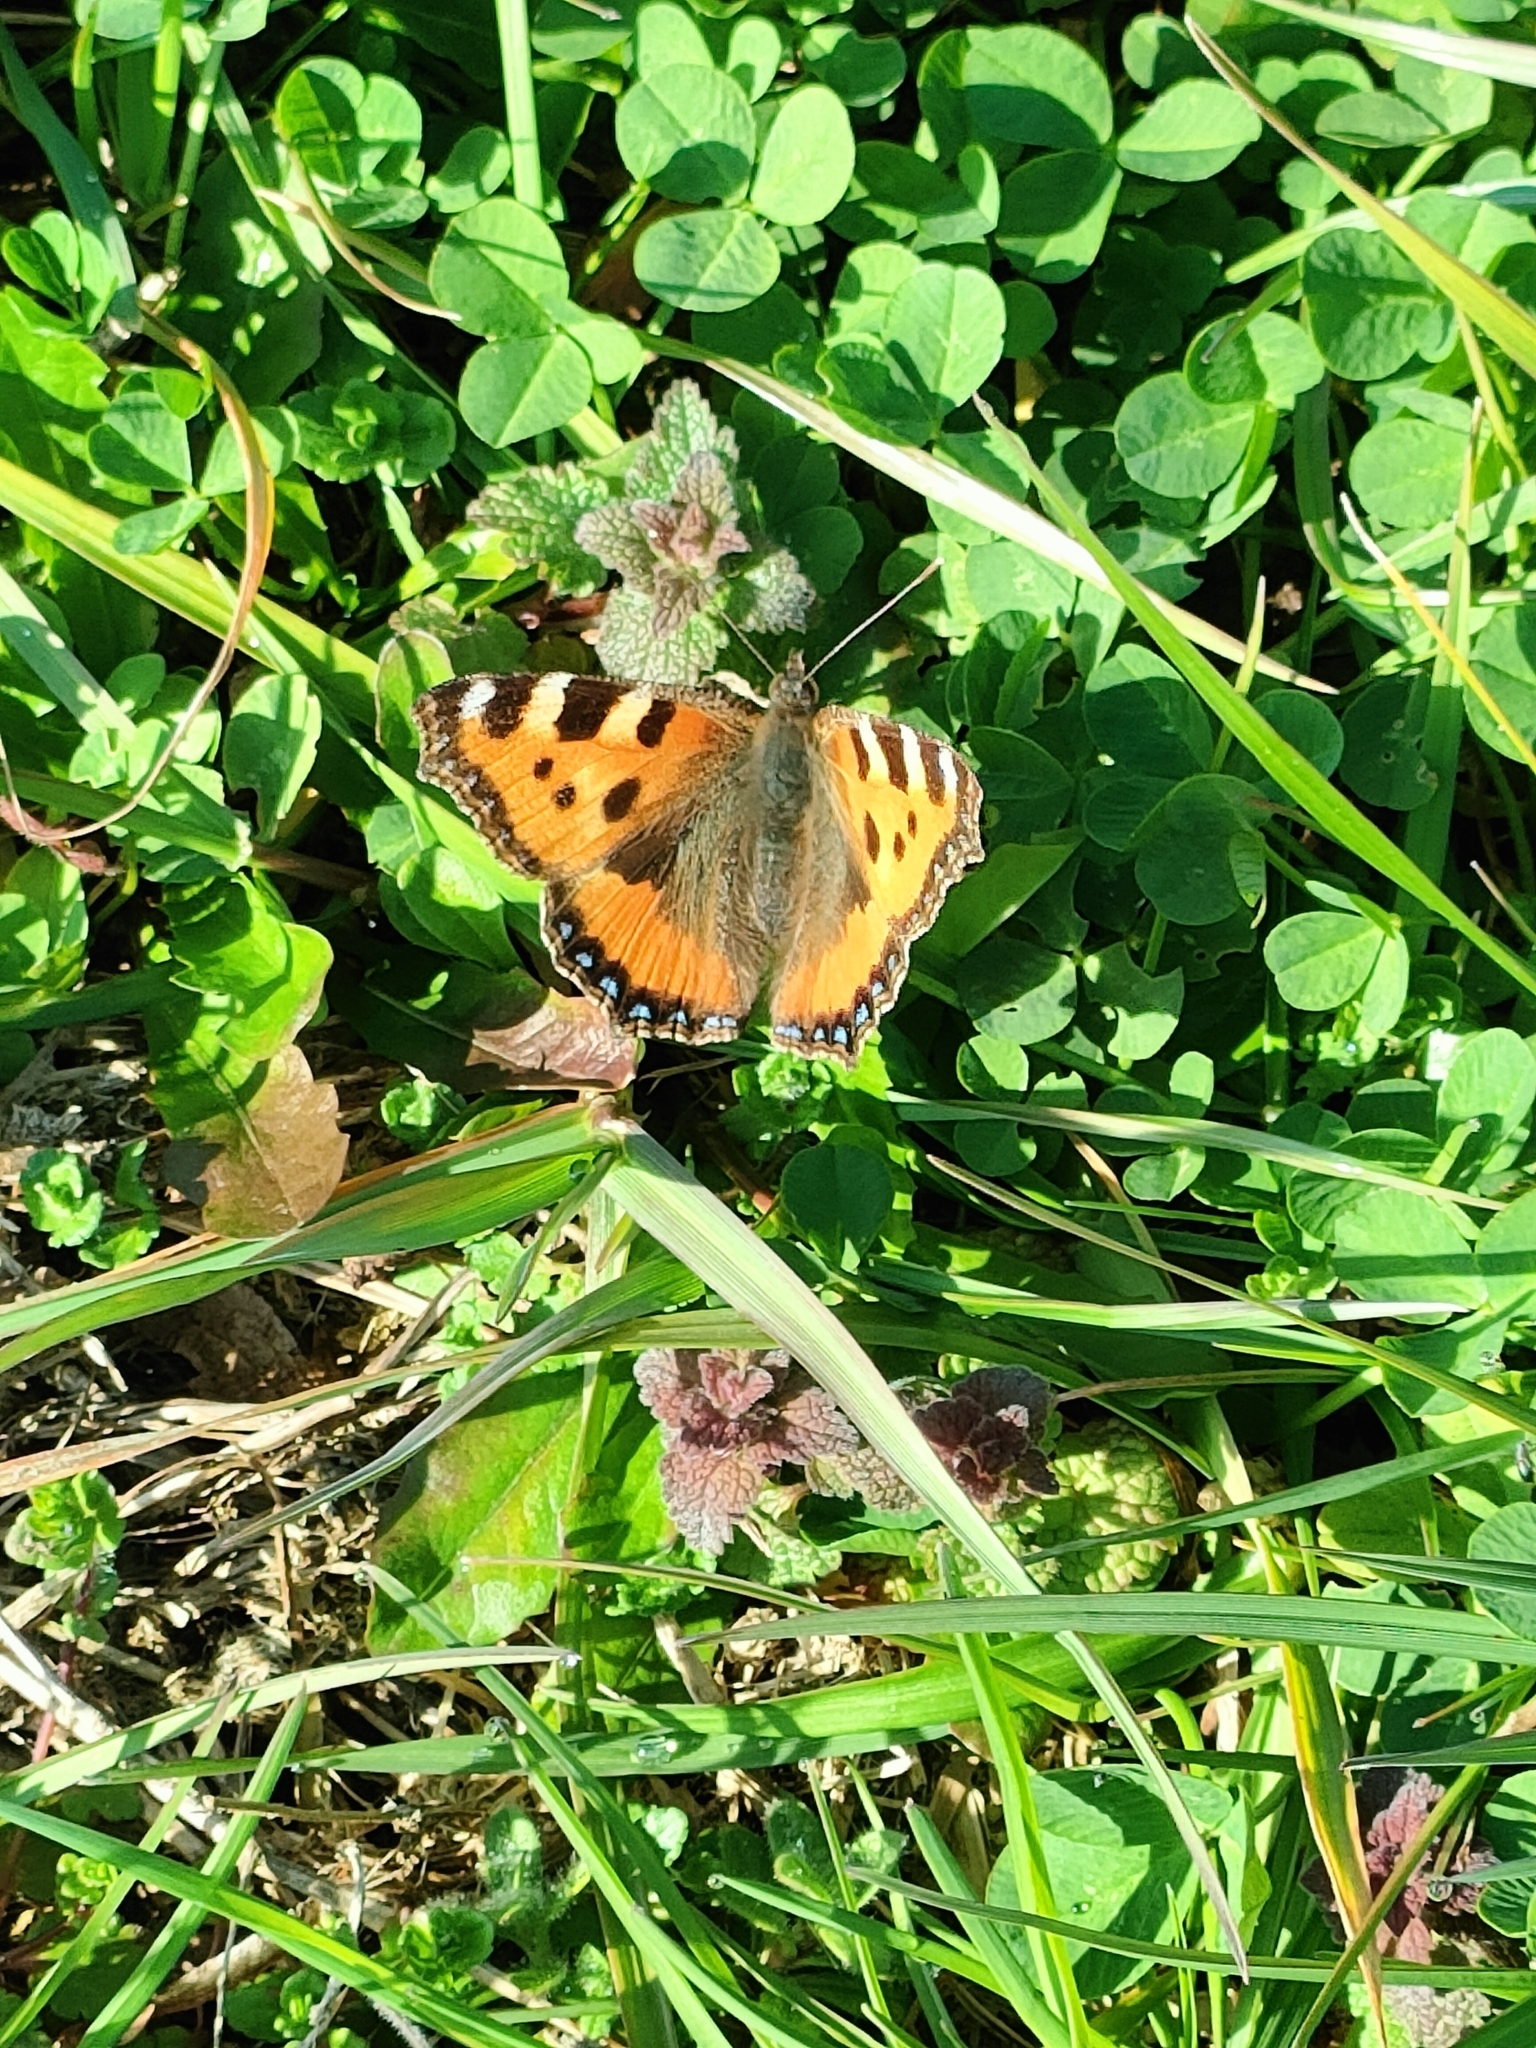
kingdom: Animalia
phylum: Arthropoda
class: Insecta
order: Lepidoptera
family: Nymphalidae
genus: Aglais
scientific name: Aglais urticae
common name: Small tortoiseshell
